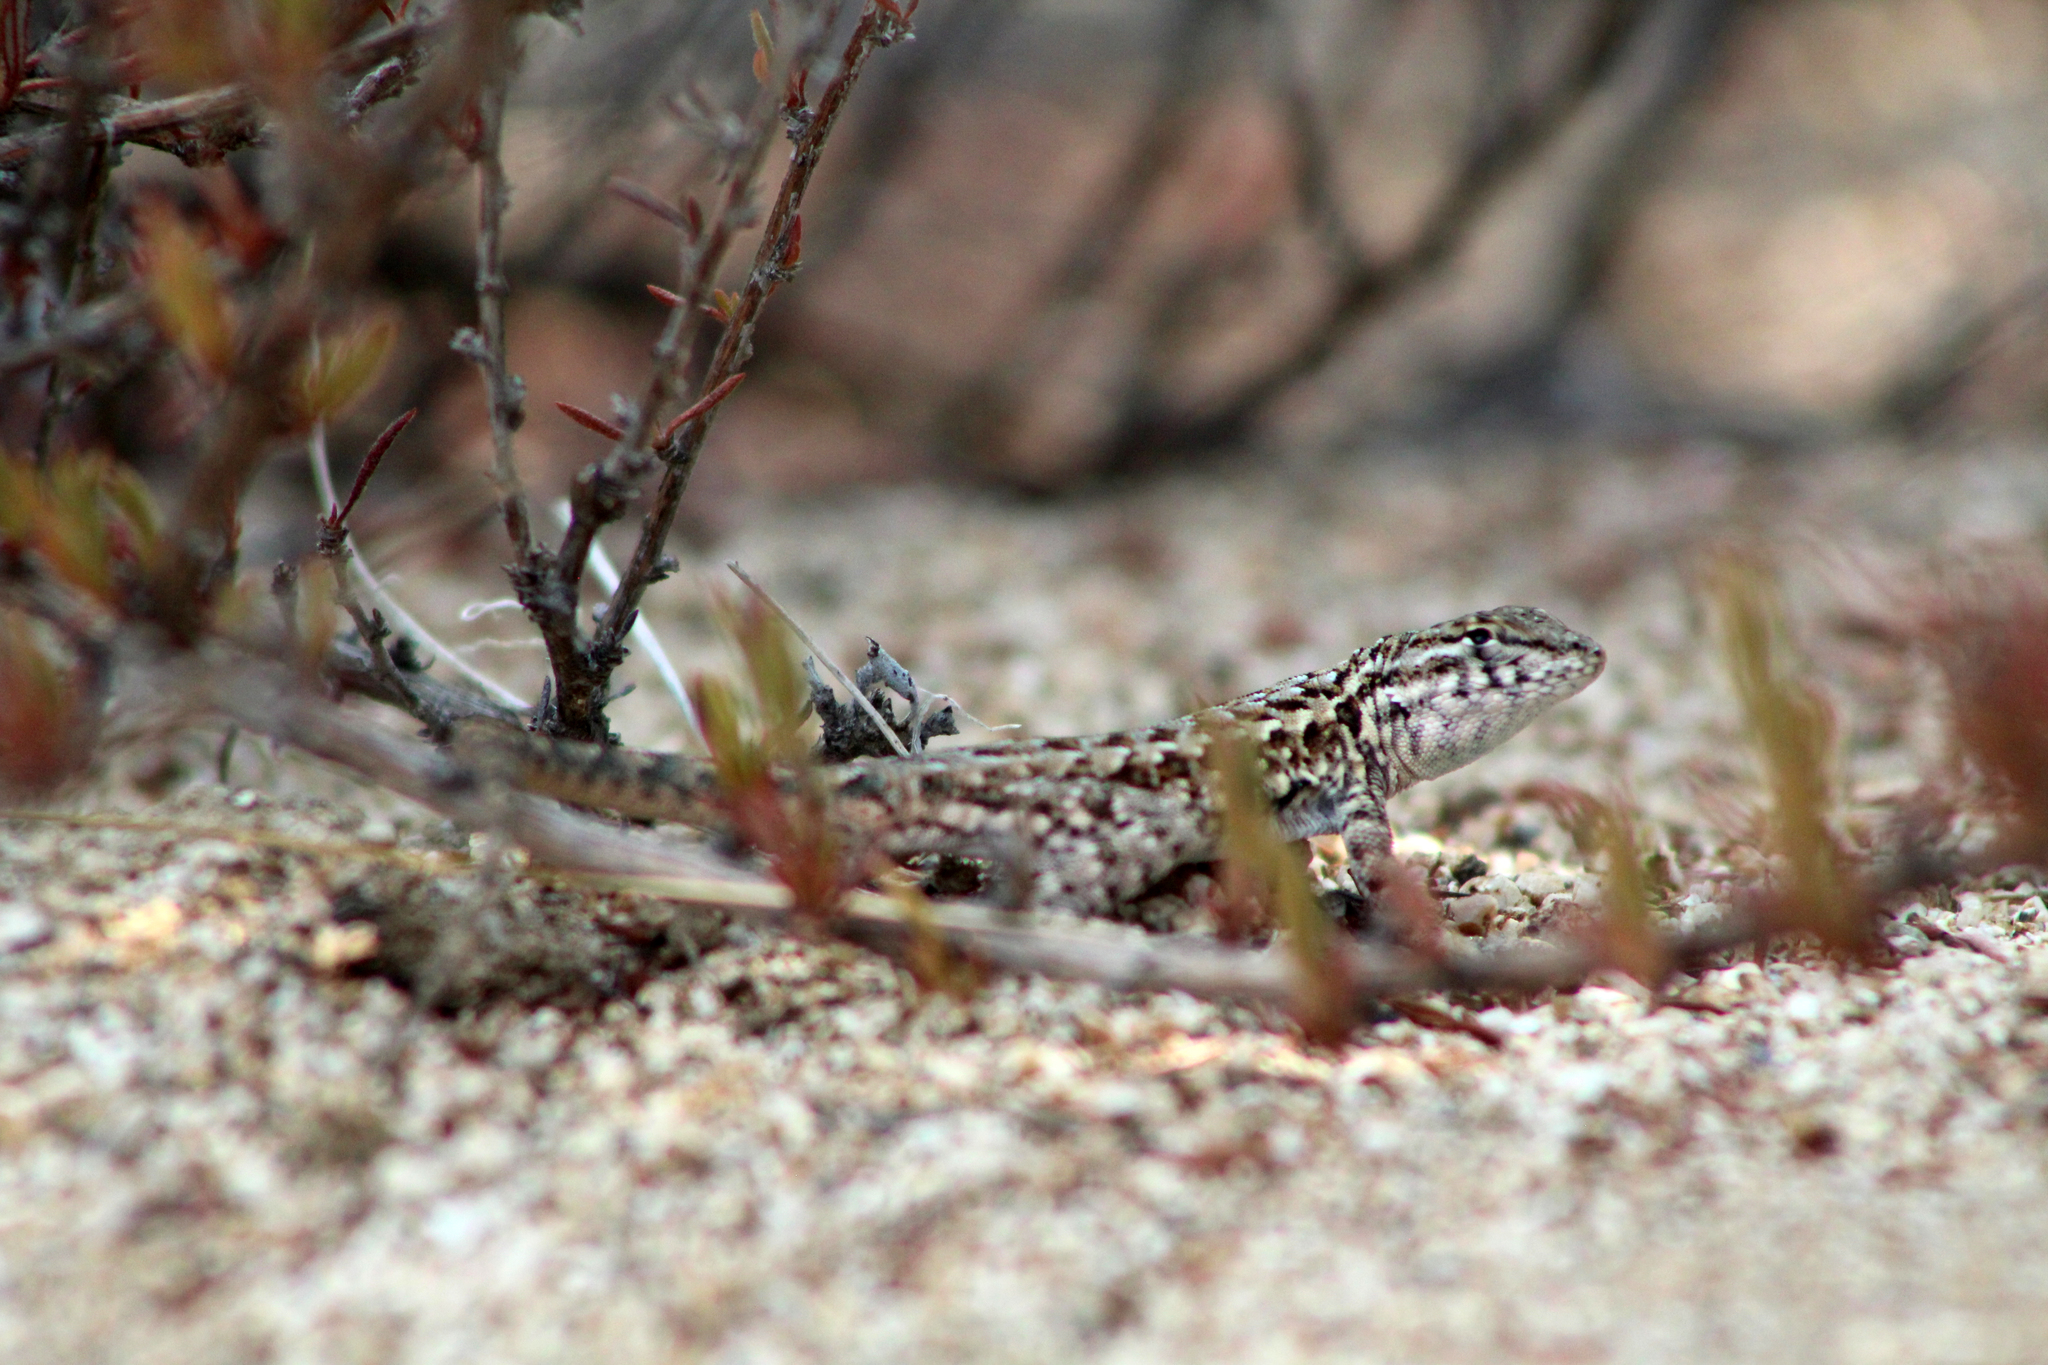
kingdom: Animalia
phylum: Chordata
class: Squamata
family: Phrynosomatidae
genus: Uta
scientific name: Uta stansburiana
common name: Side-blotched lizard
